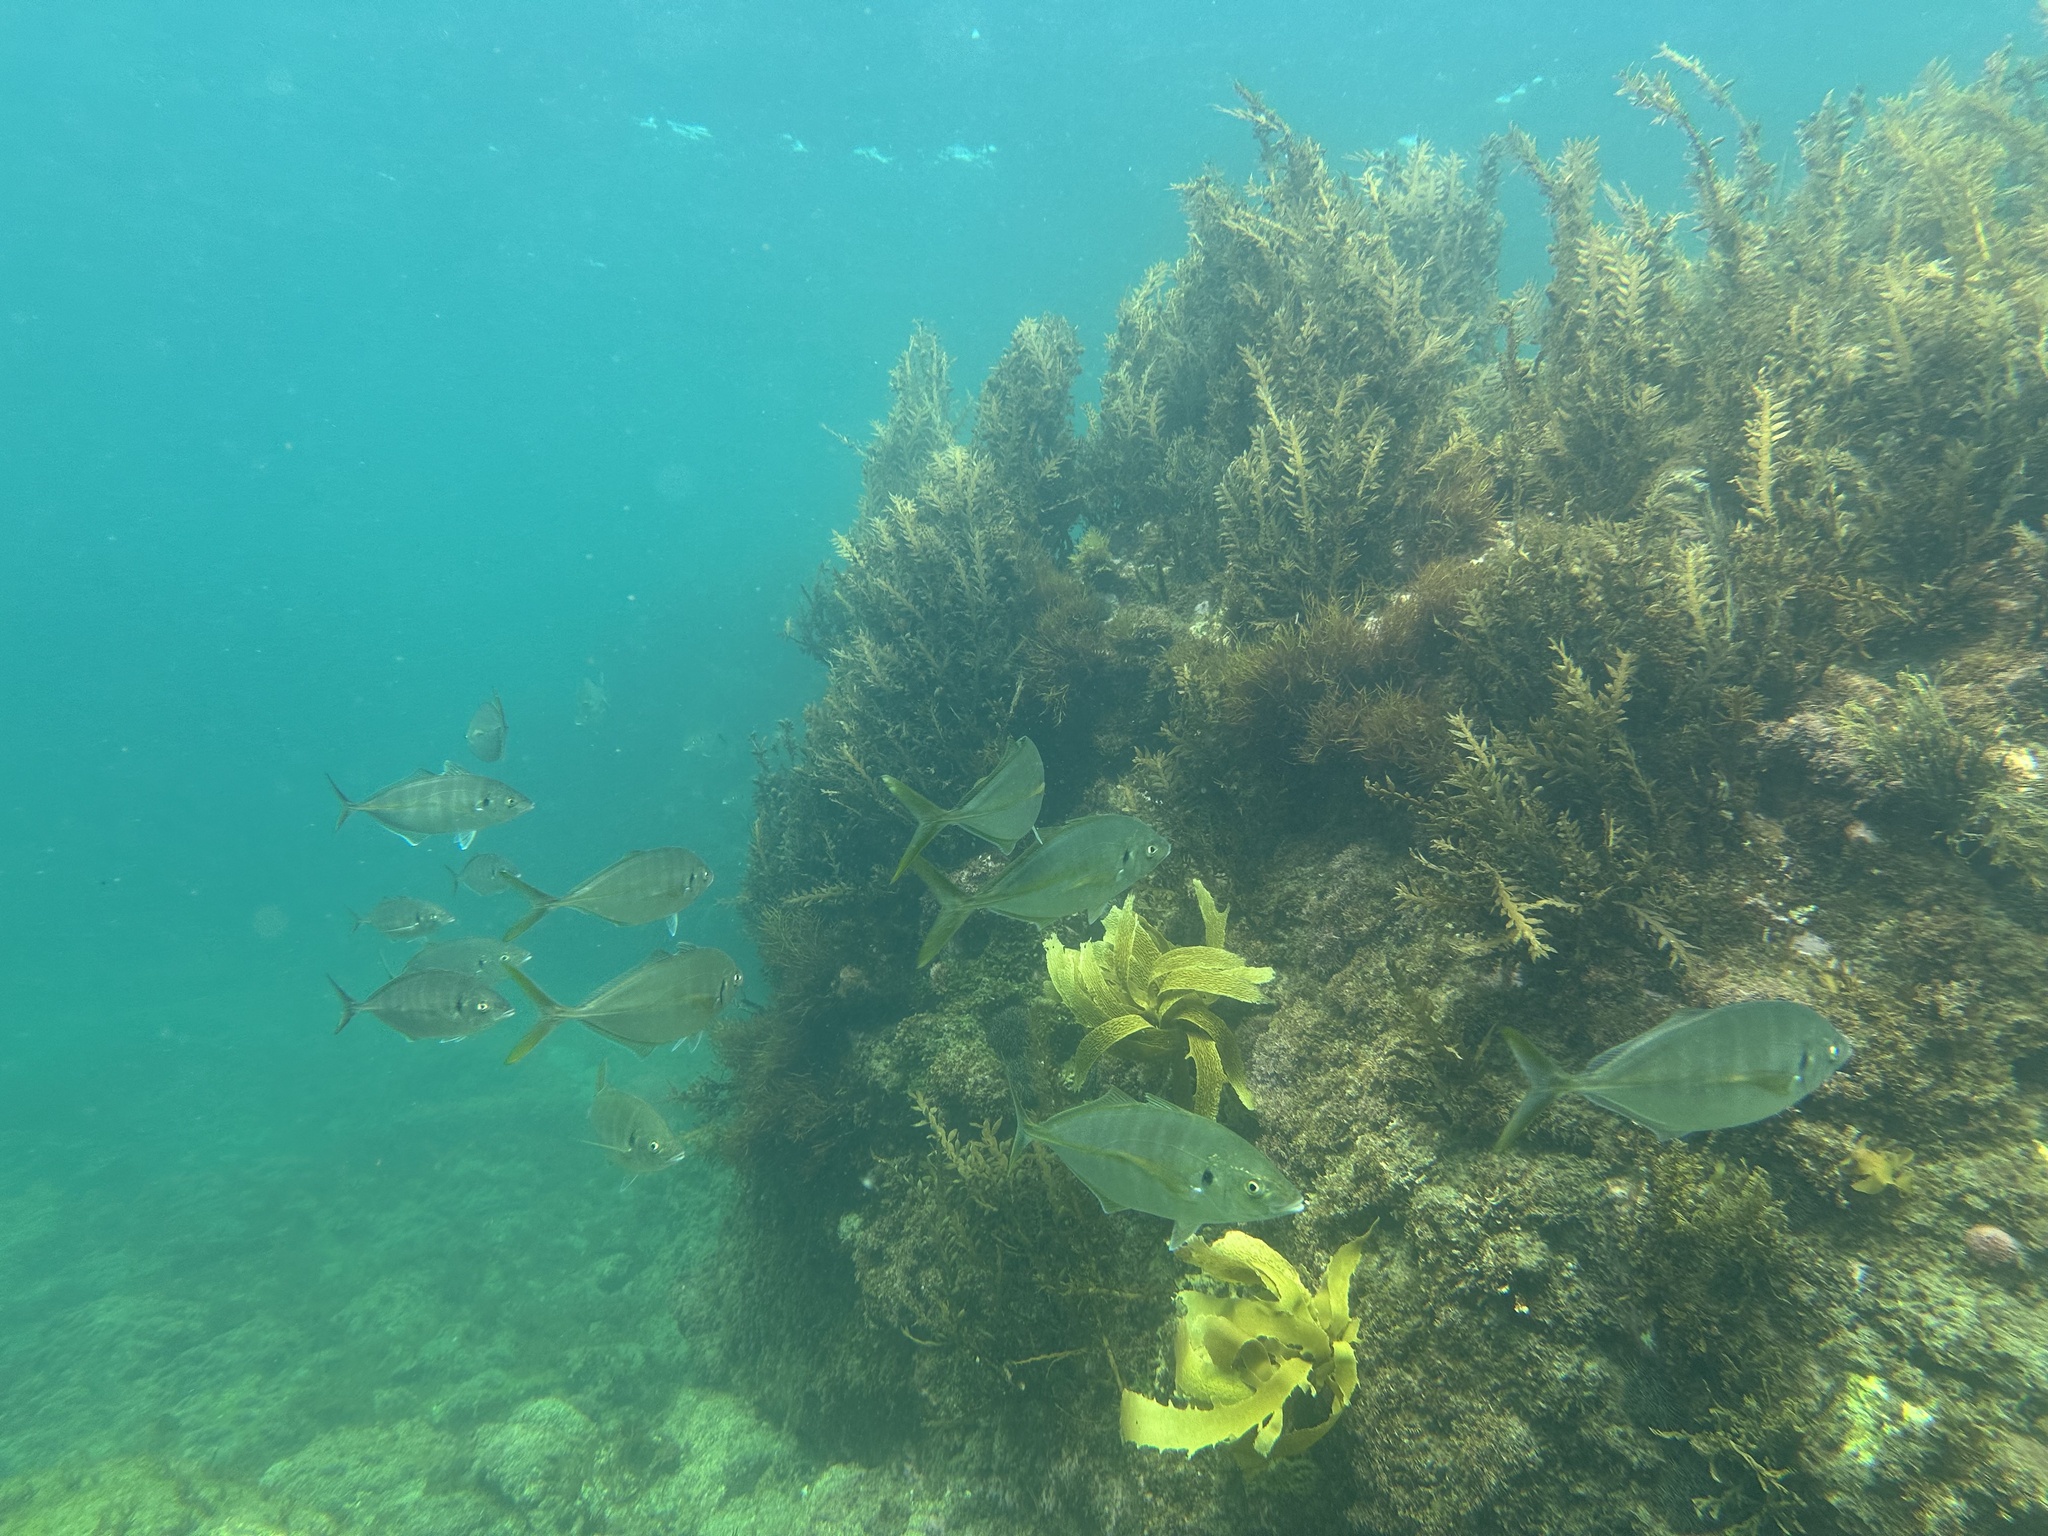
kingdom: Animalia
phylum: Chordata
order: Perciformes
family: Carangidae
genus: Pseudocaranx
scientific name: Pseudocaranx dentex
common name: White trevally
